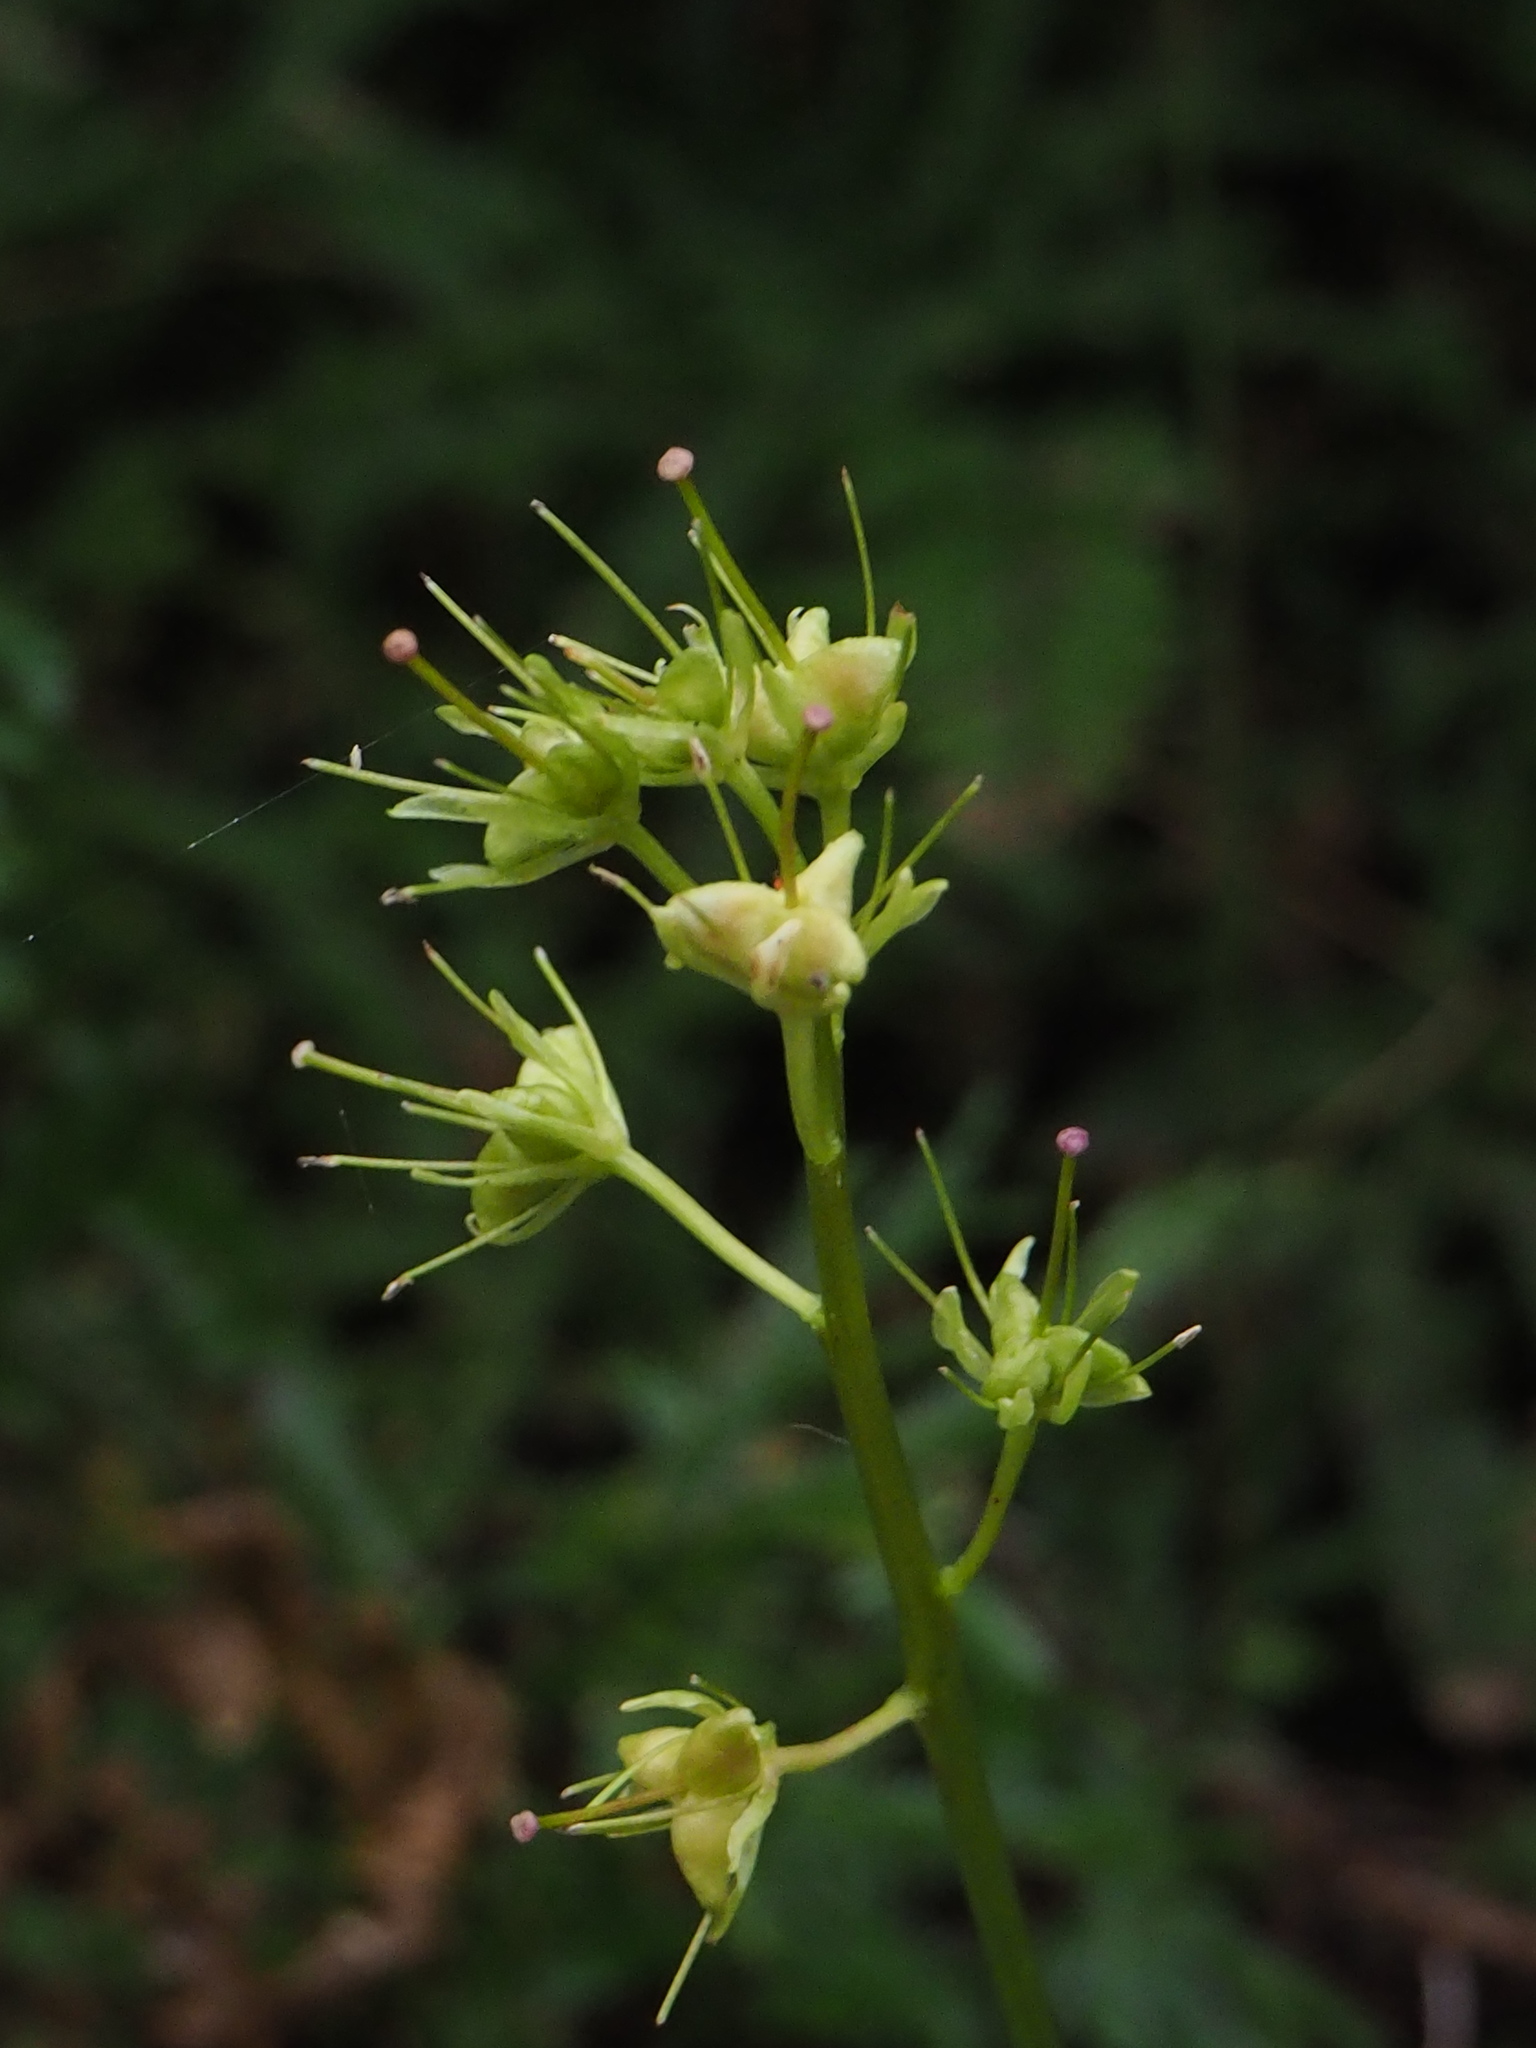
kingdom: Plantae
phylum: Tracheophyta
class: Liliopsida
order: Liliales
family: Melanthiaceae
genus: Helonias
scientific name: Helonias umbellata
